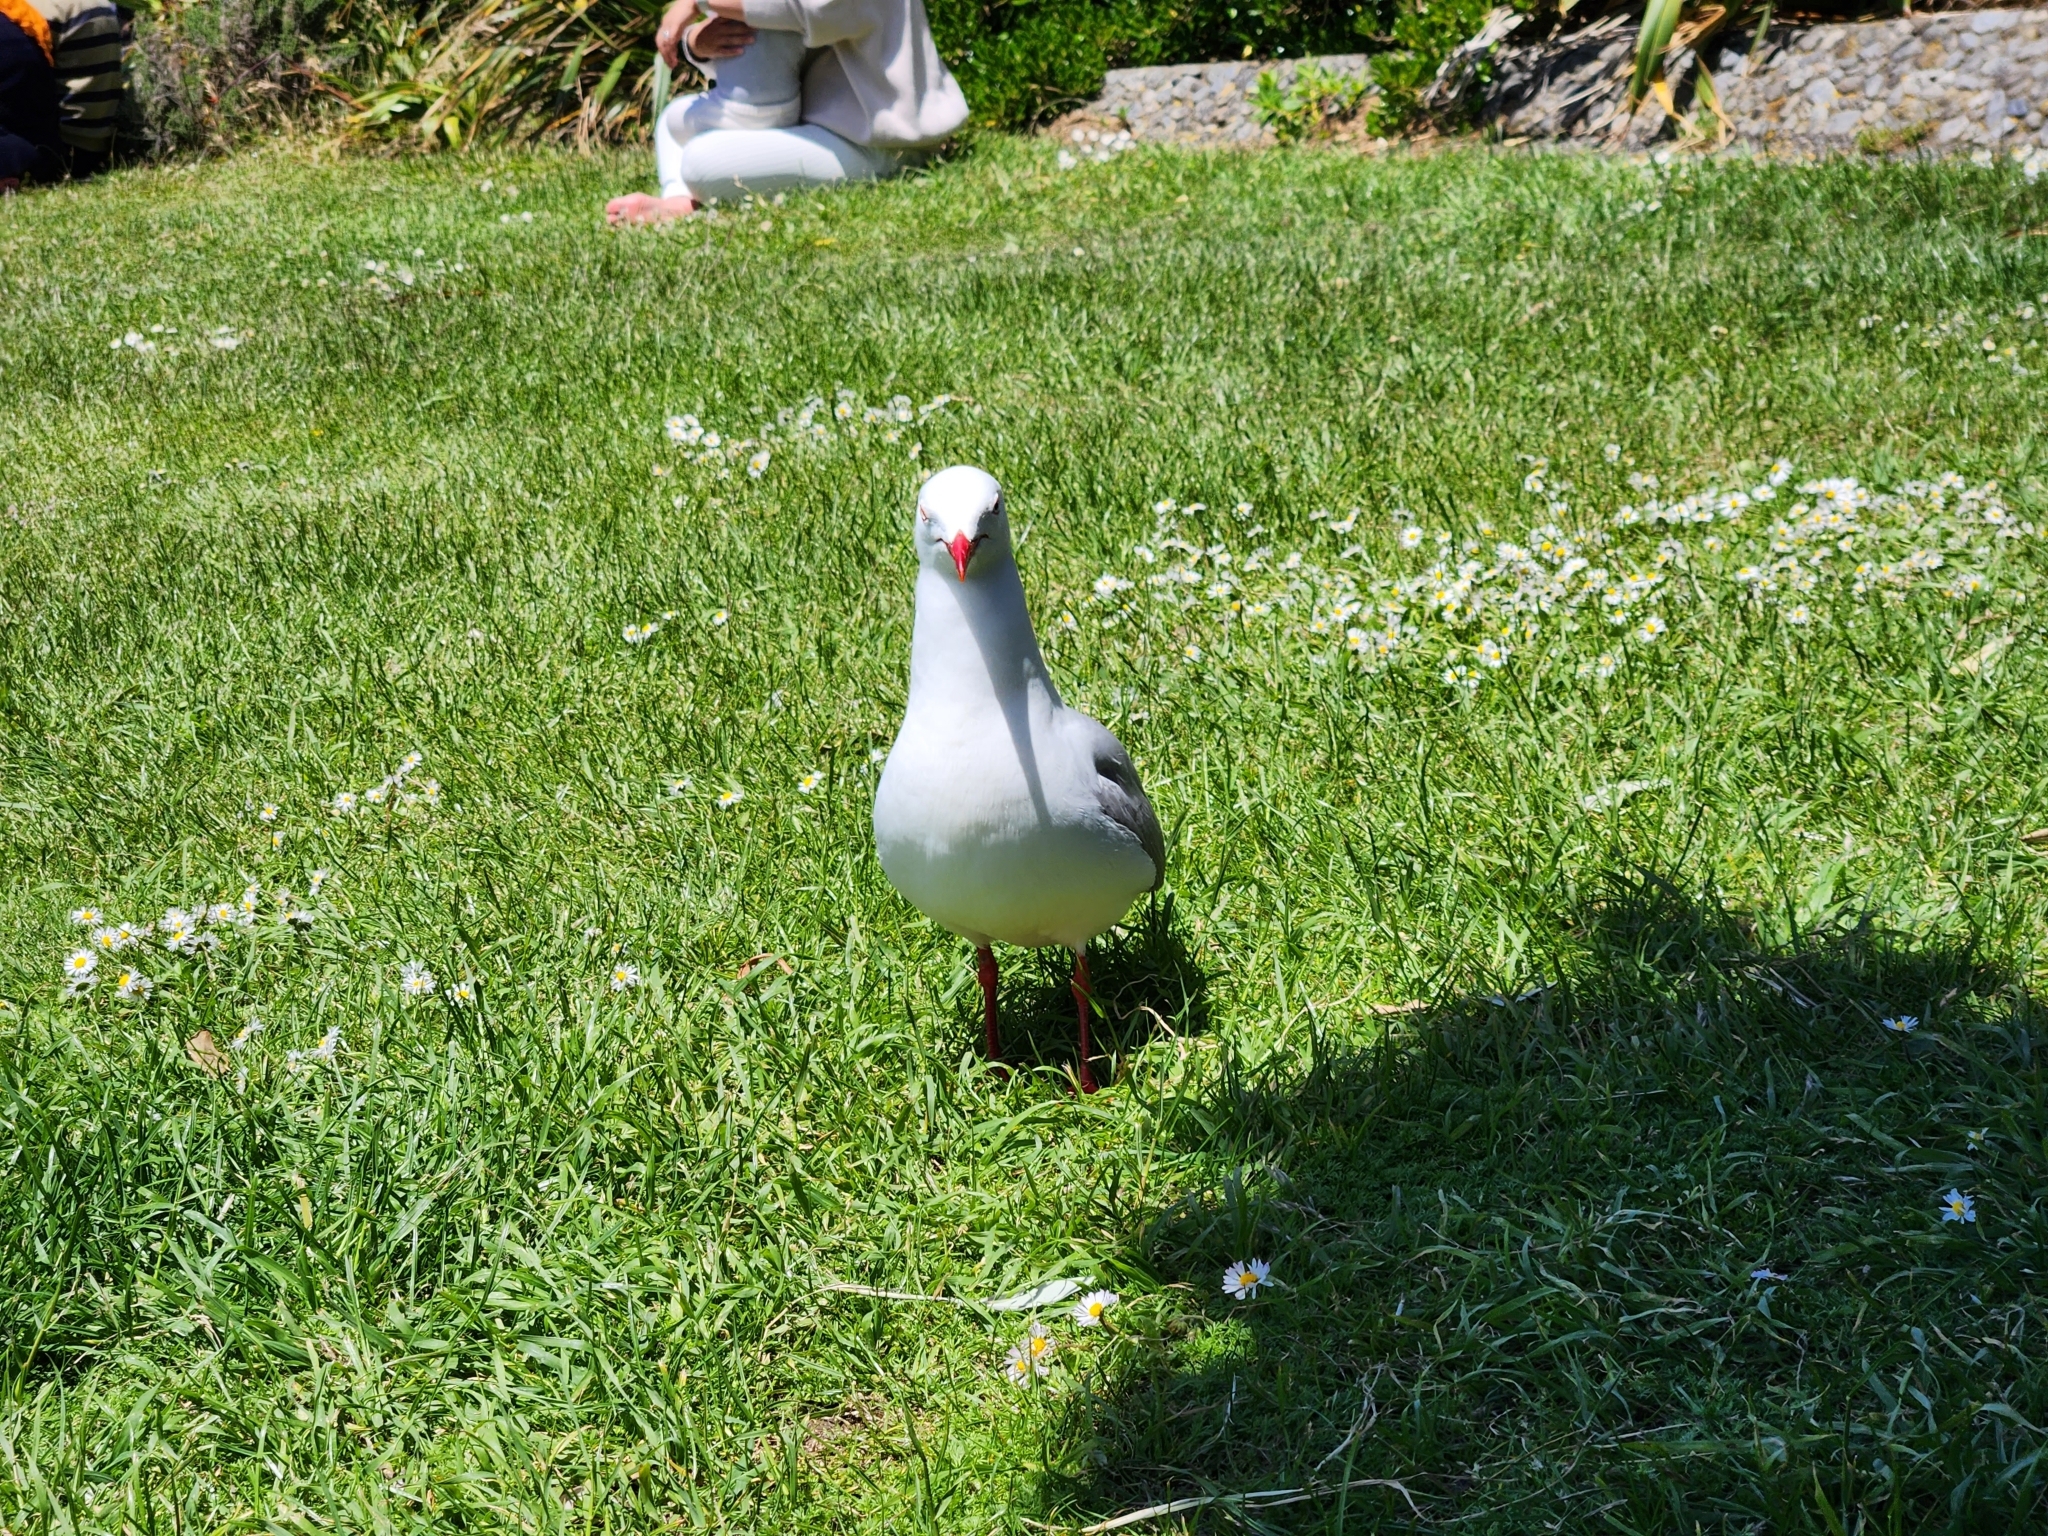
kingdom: Animalia
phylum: Chordata
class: Aves
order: Charadriiformes
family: Laridae
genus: Chroicocephalus
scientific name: Chroicocephalus novaehollandiae
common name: Silver gull
